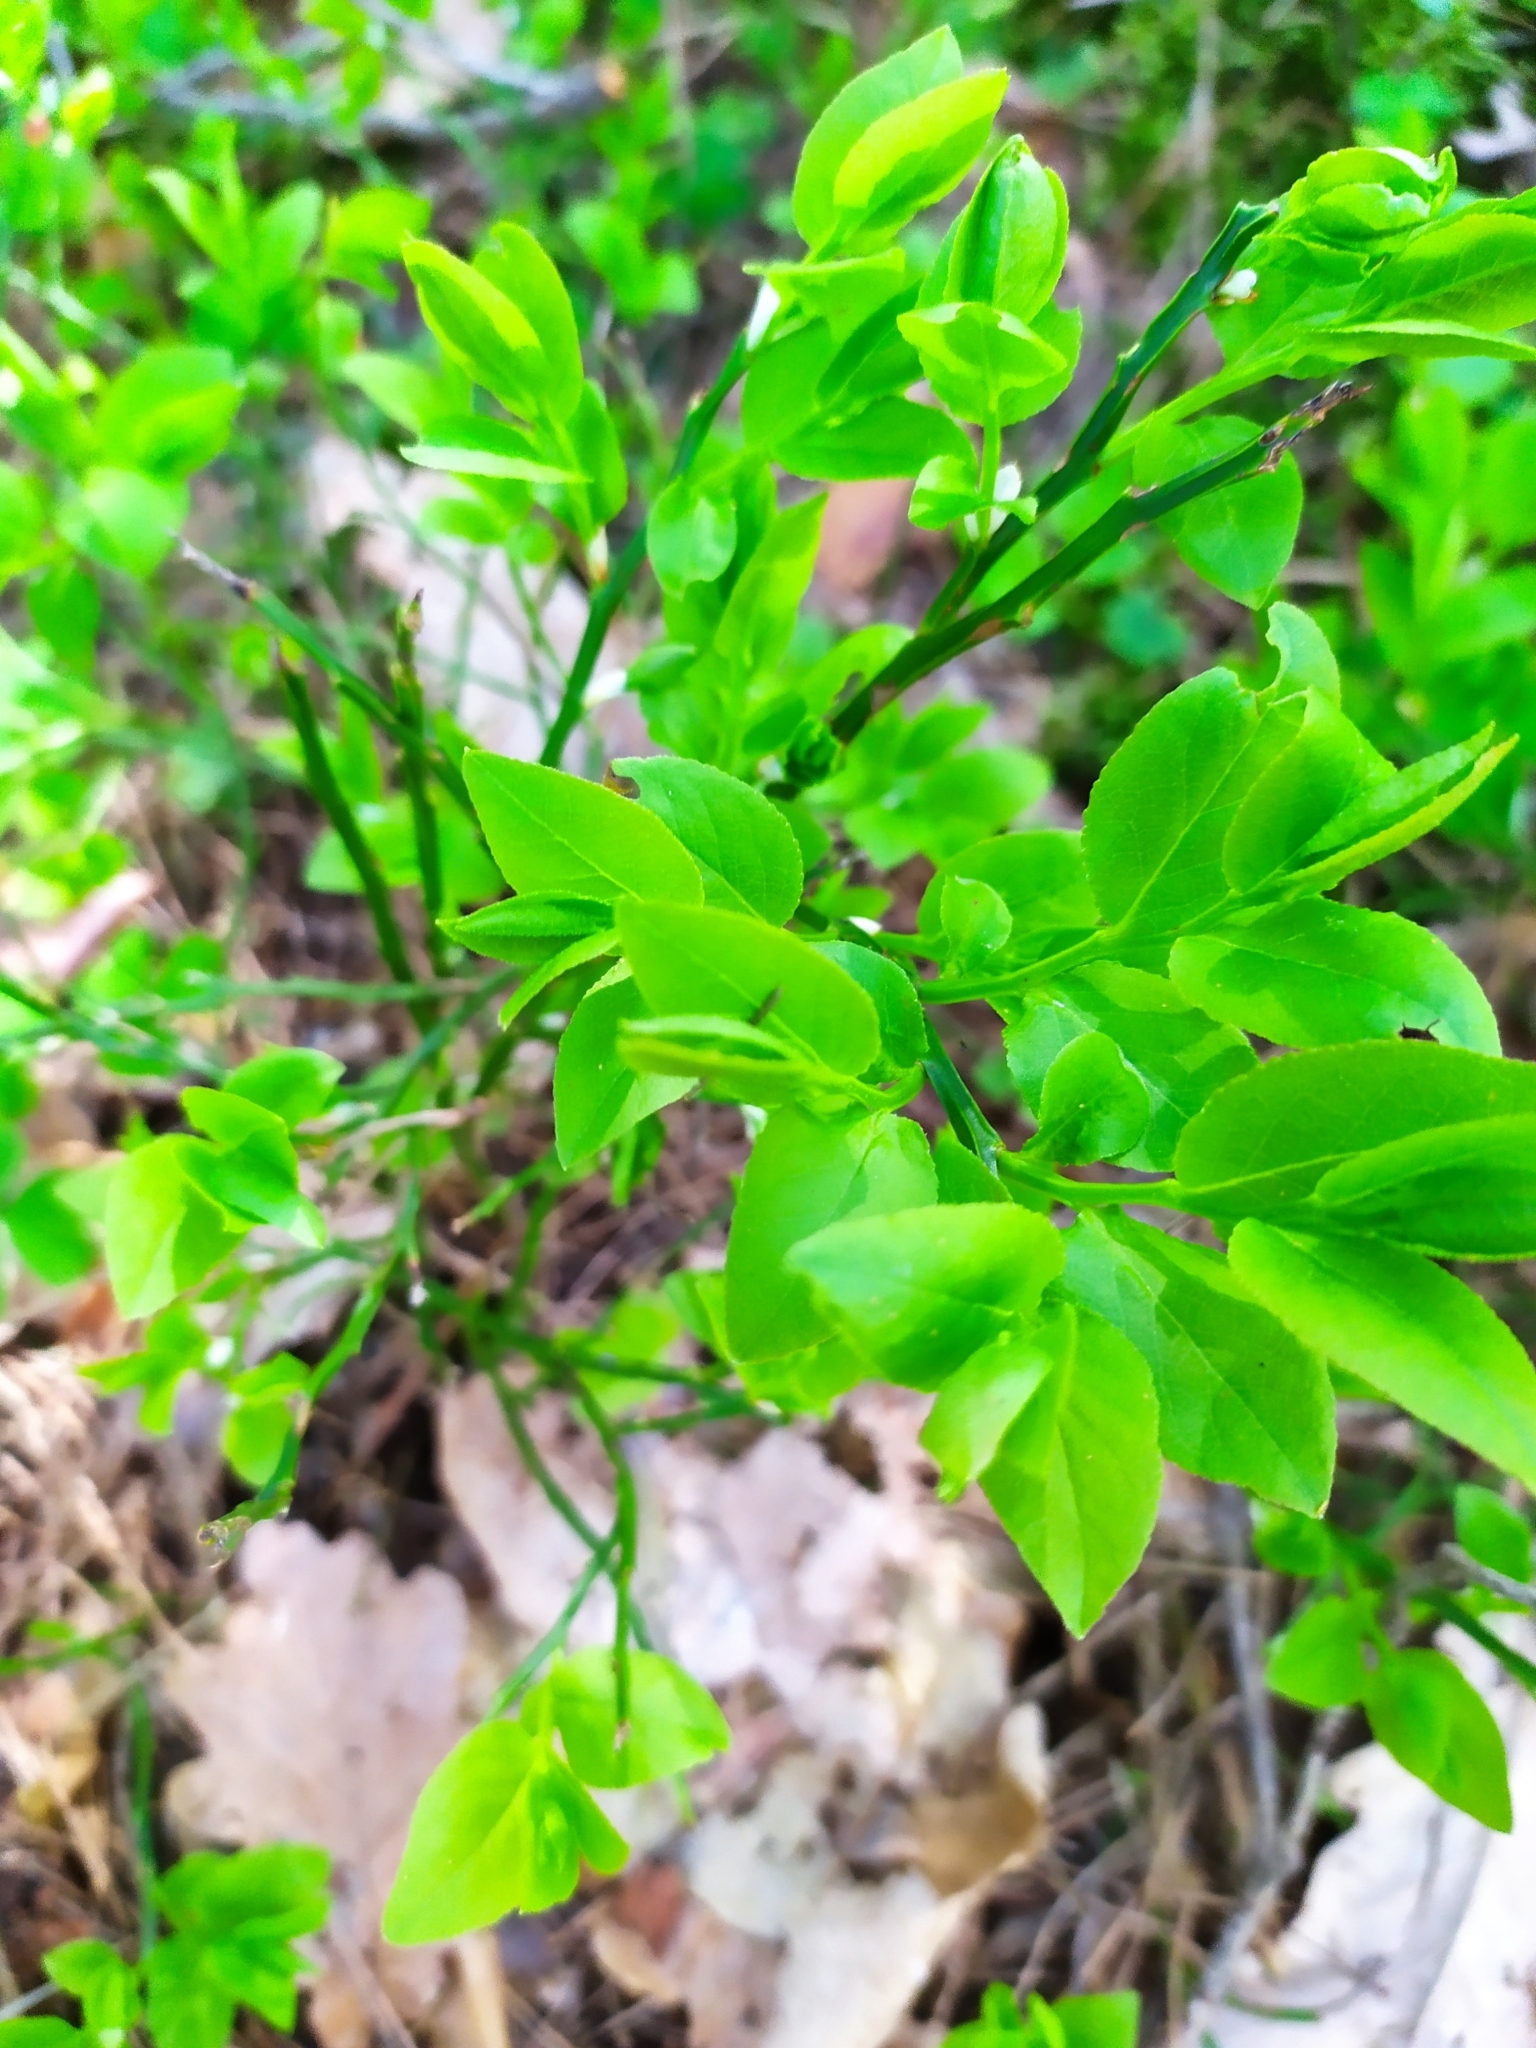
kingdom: Plantae
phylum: Tracheophyta
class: Magnoliopsida
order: Ericales
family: Ericaceae
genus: Vaccinium
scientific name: Vaccinium myrtillus
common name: Bilberry
